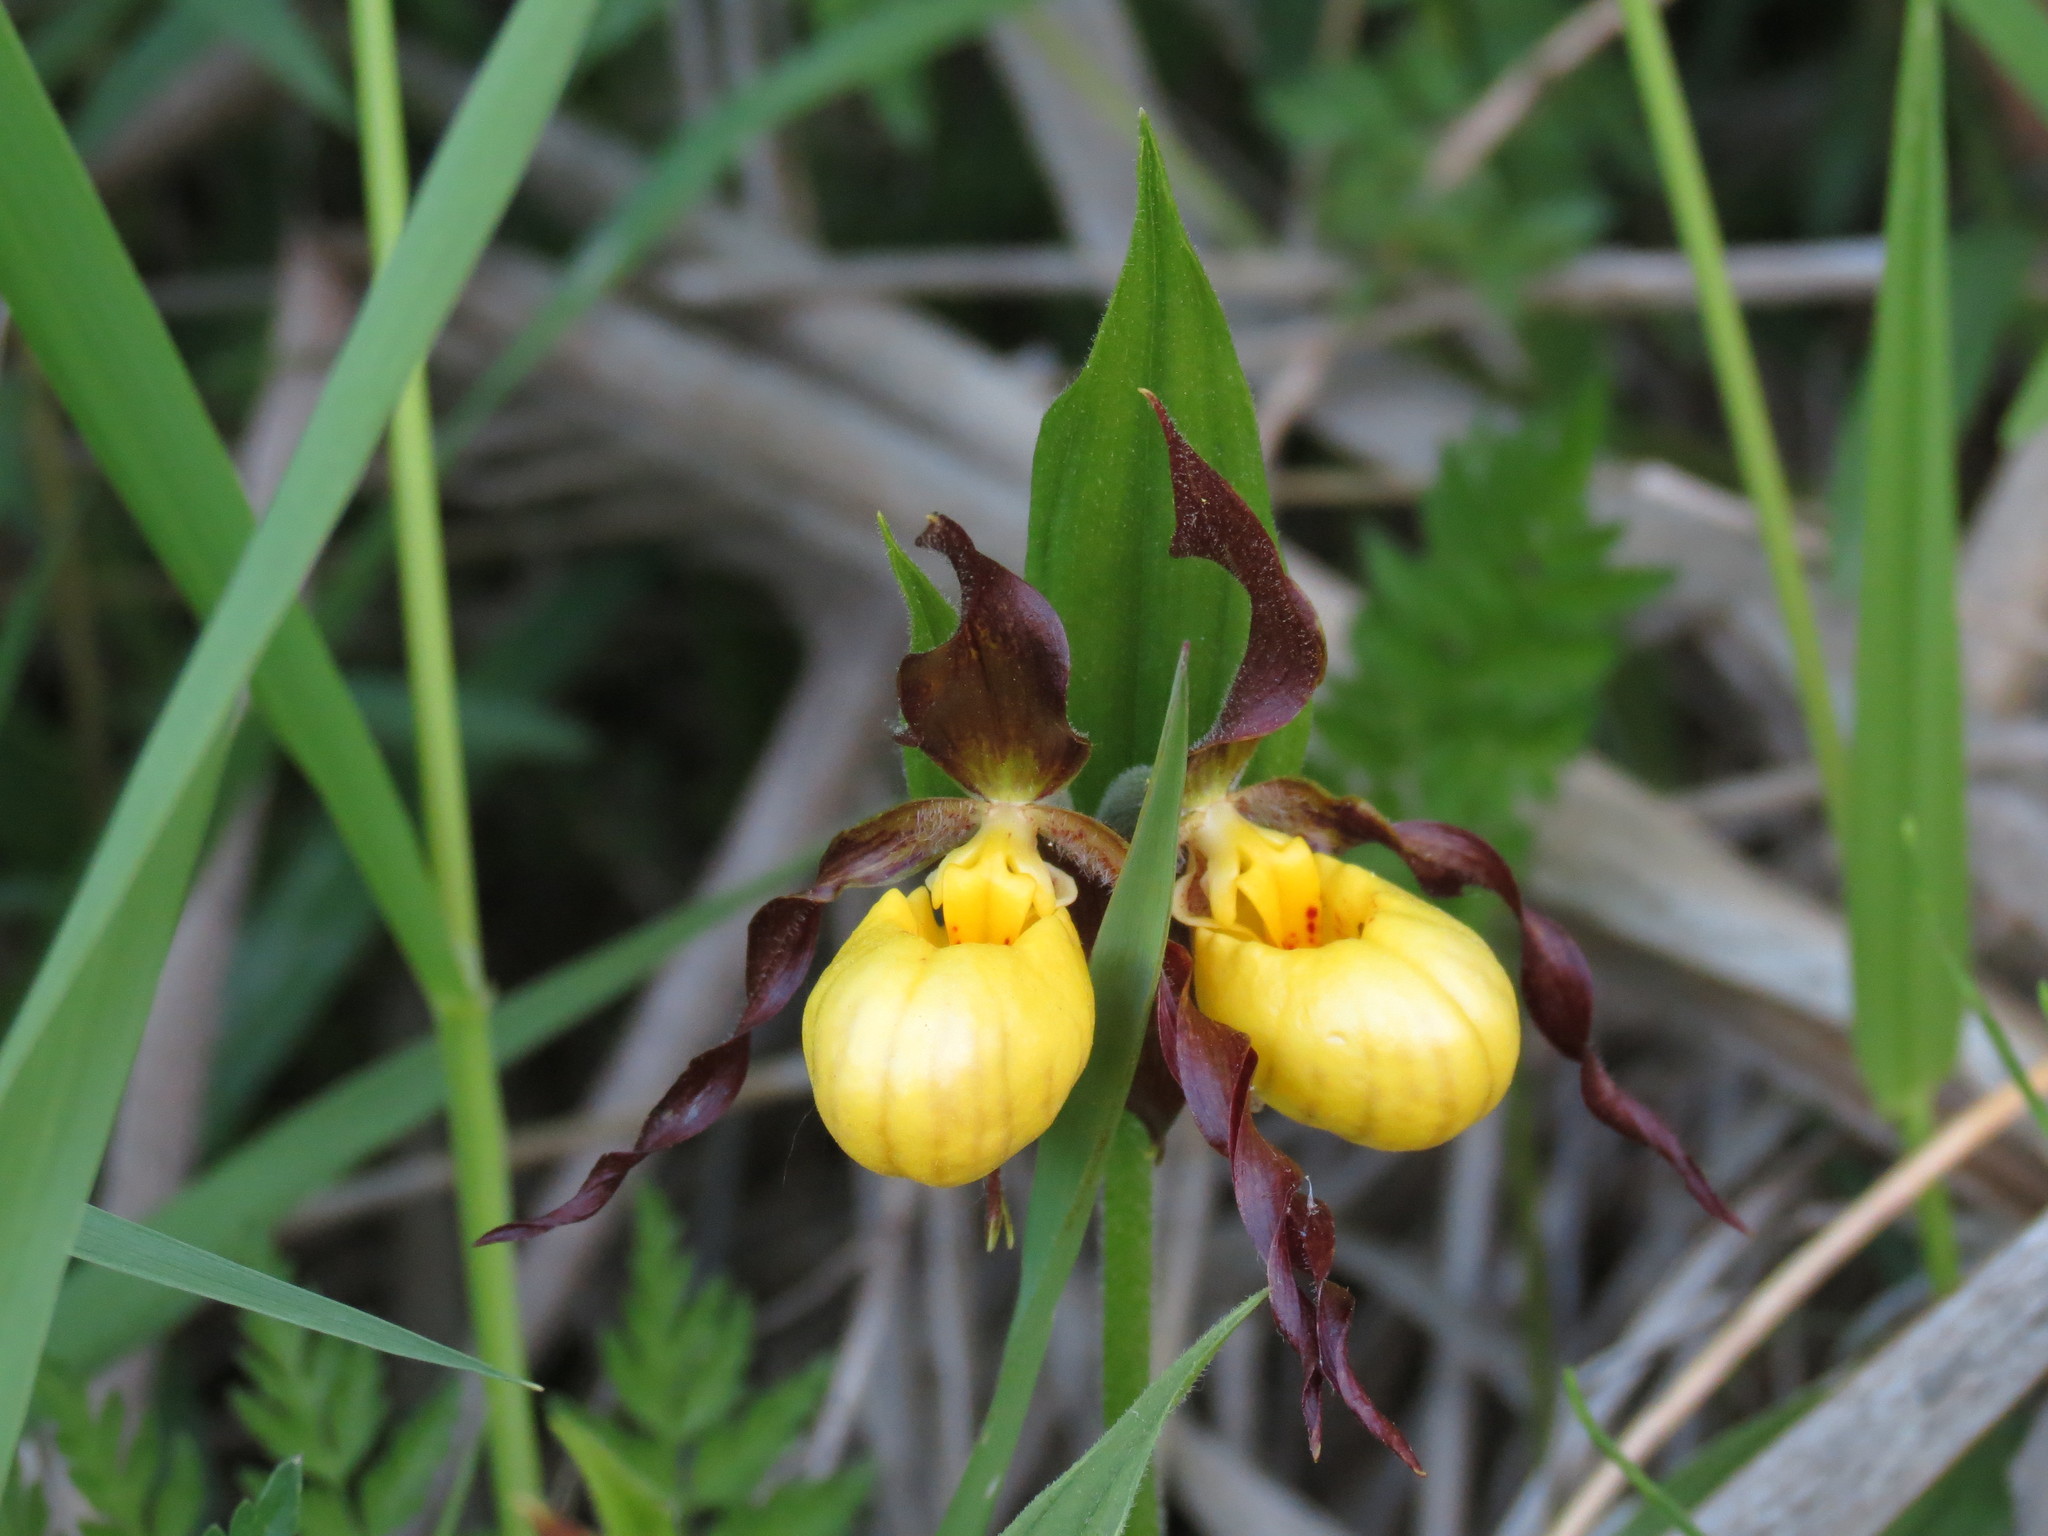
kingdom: Plantae
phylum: Tracheophyta
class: Liliopsida
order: Asparagales
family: Orchidaceae
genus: Cypripedium
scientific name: Cypripedium parviflorum
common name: American yellow lady's-slipper
